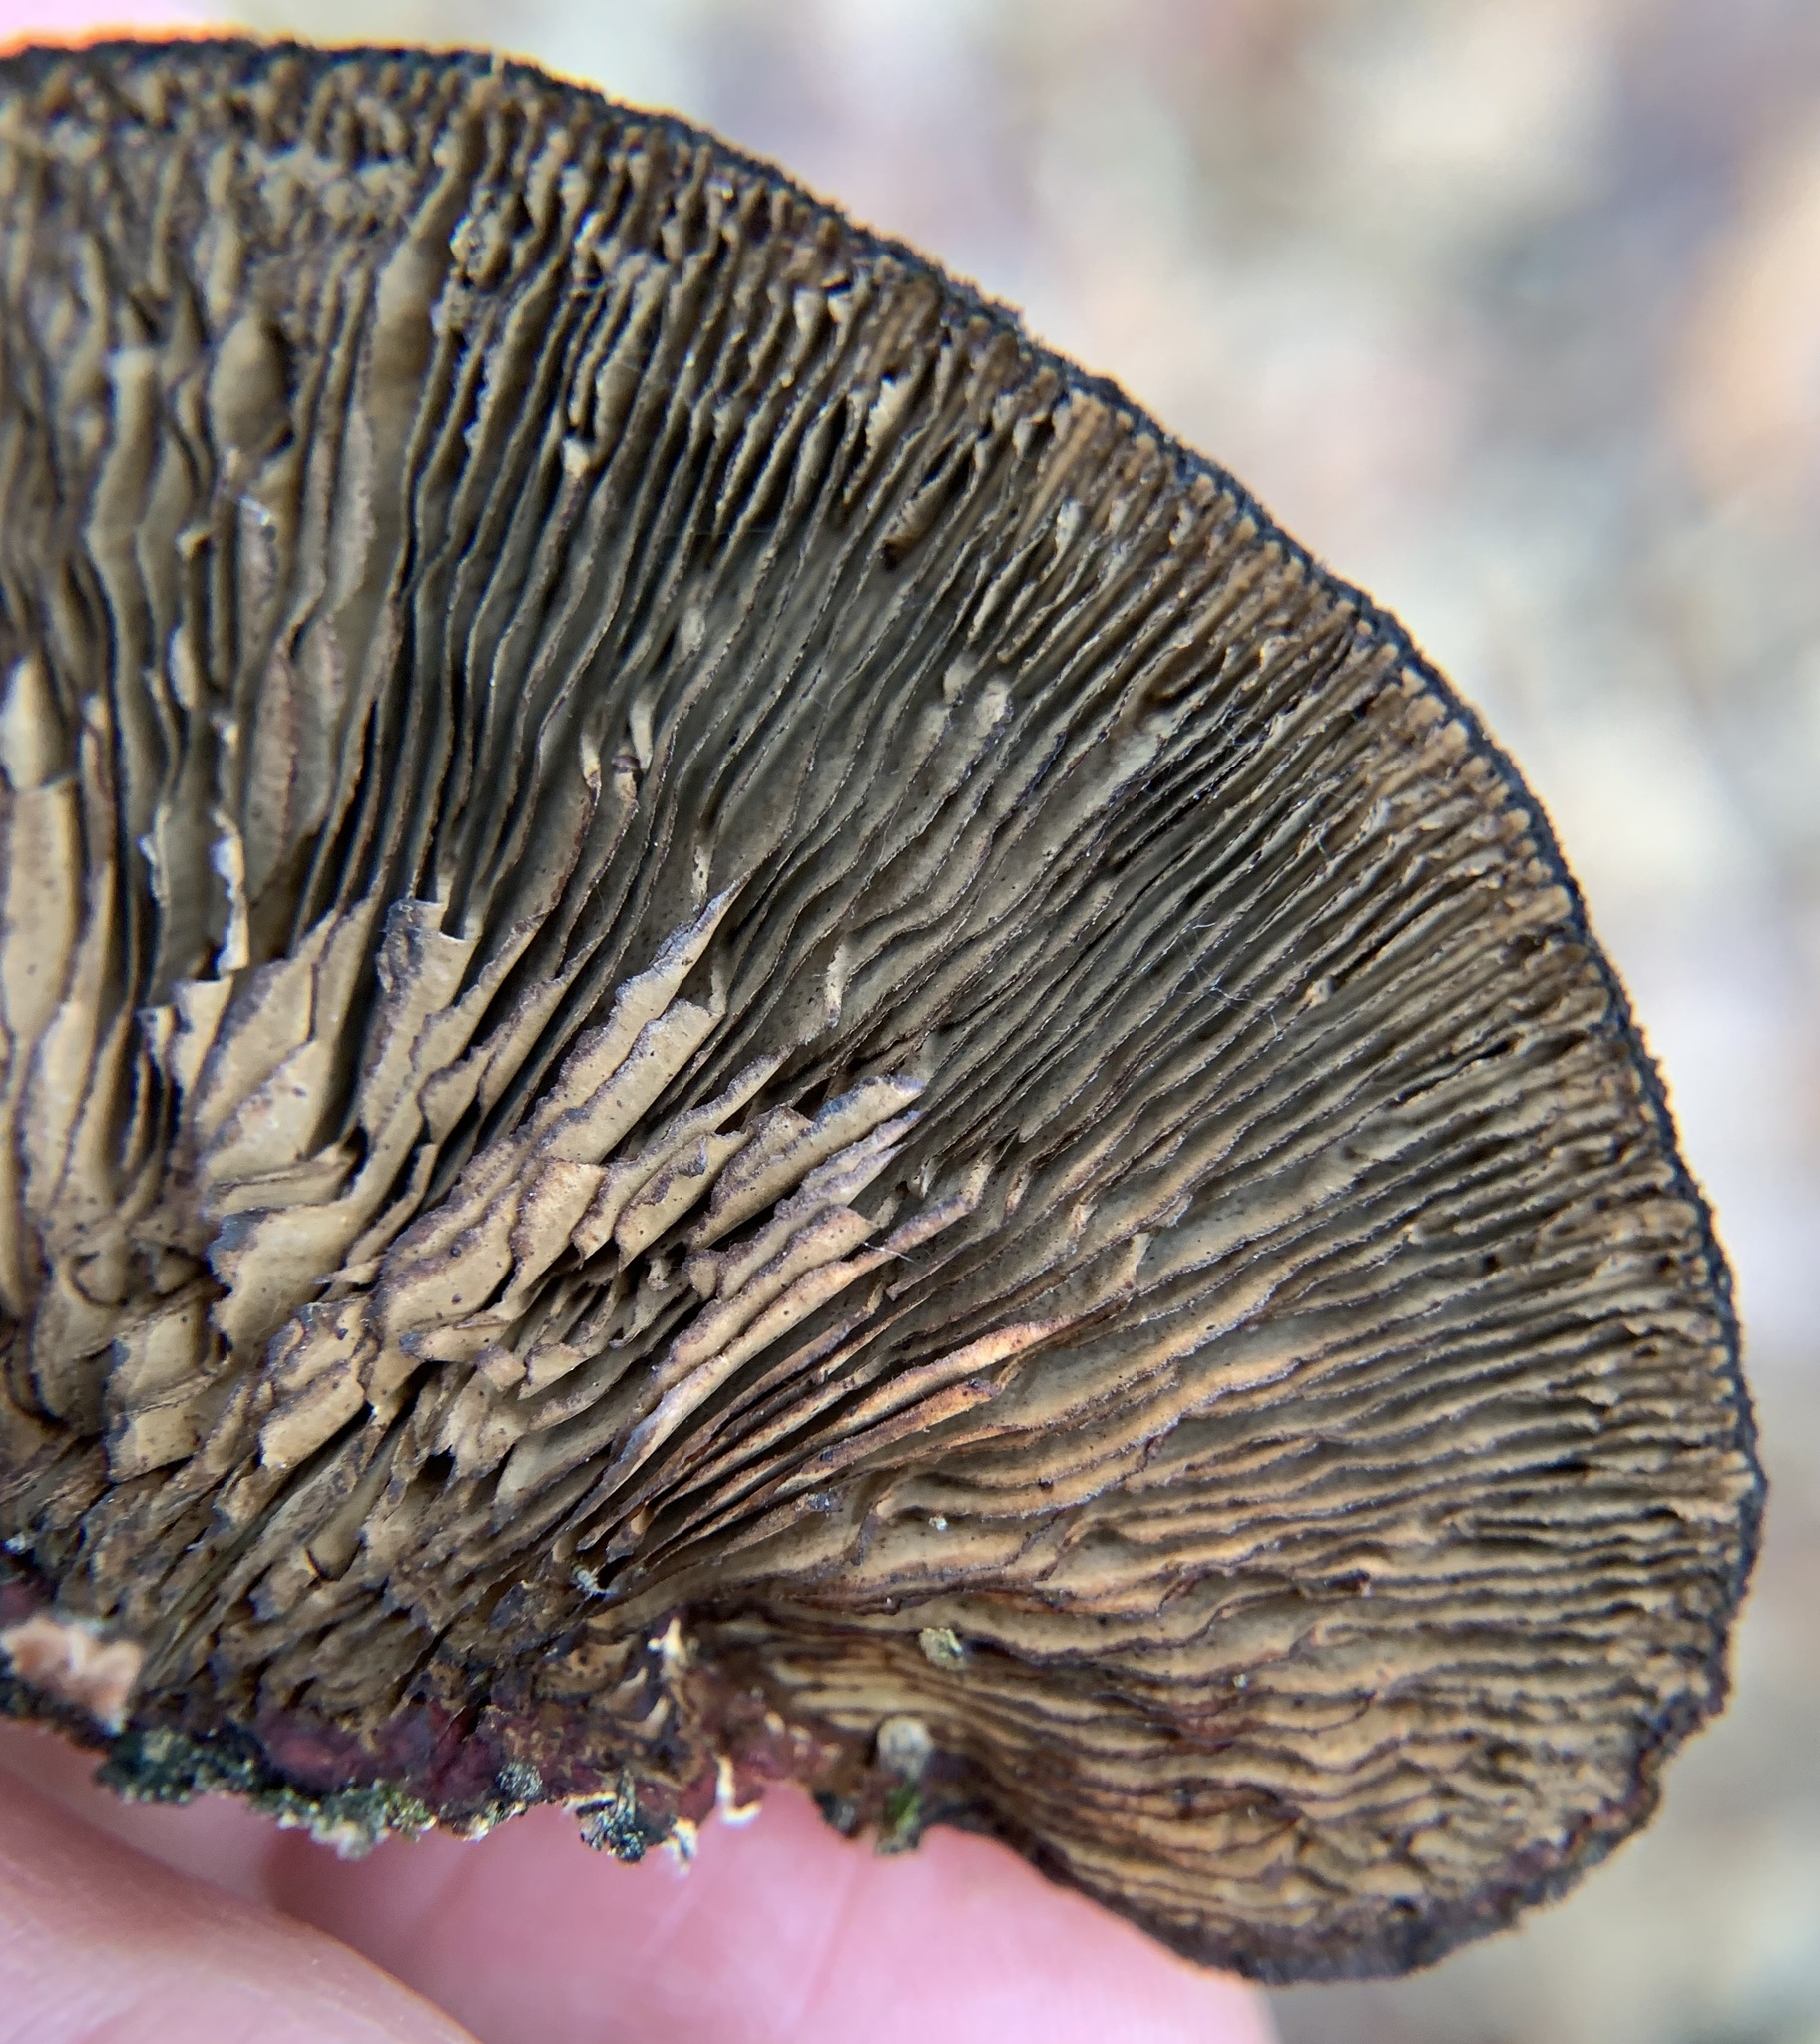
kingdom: Fungi
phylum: Basidiomycota
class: Agaricomycetes
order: Polyporales
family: Polyporaceae
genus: Daedaleopsis
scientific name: Daedaleopsis tricolor
